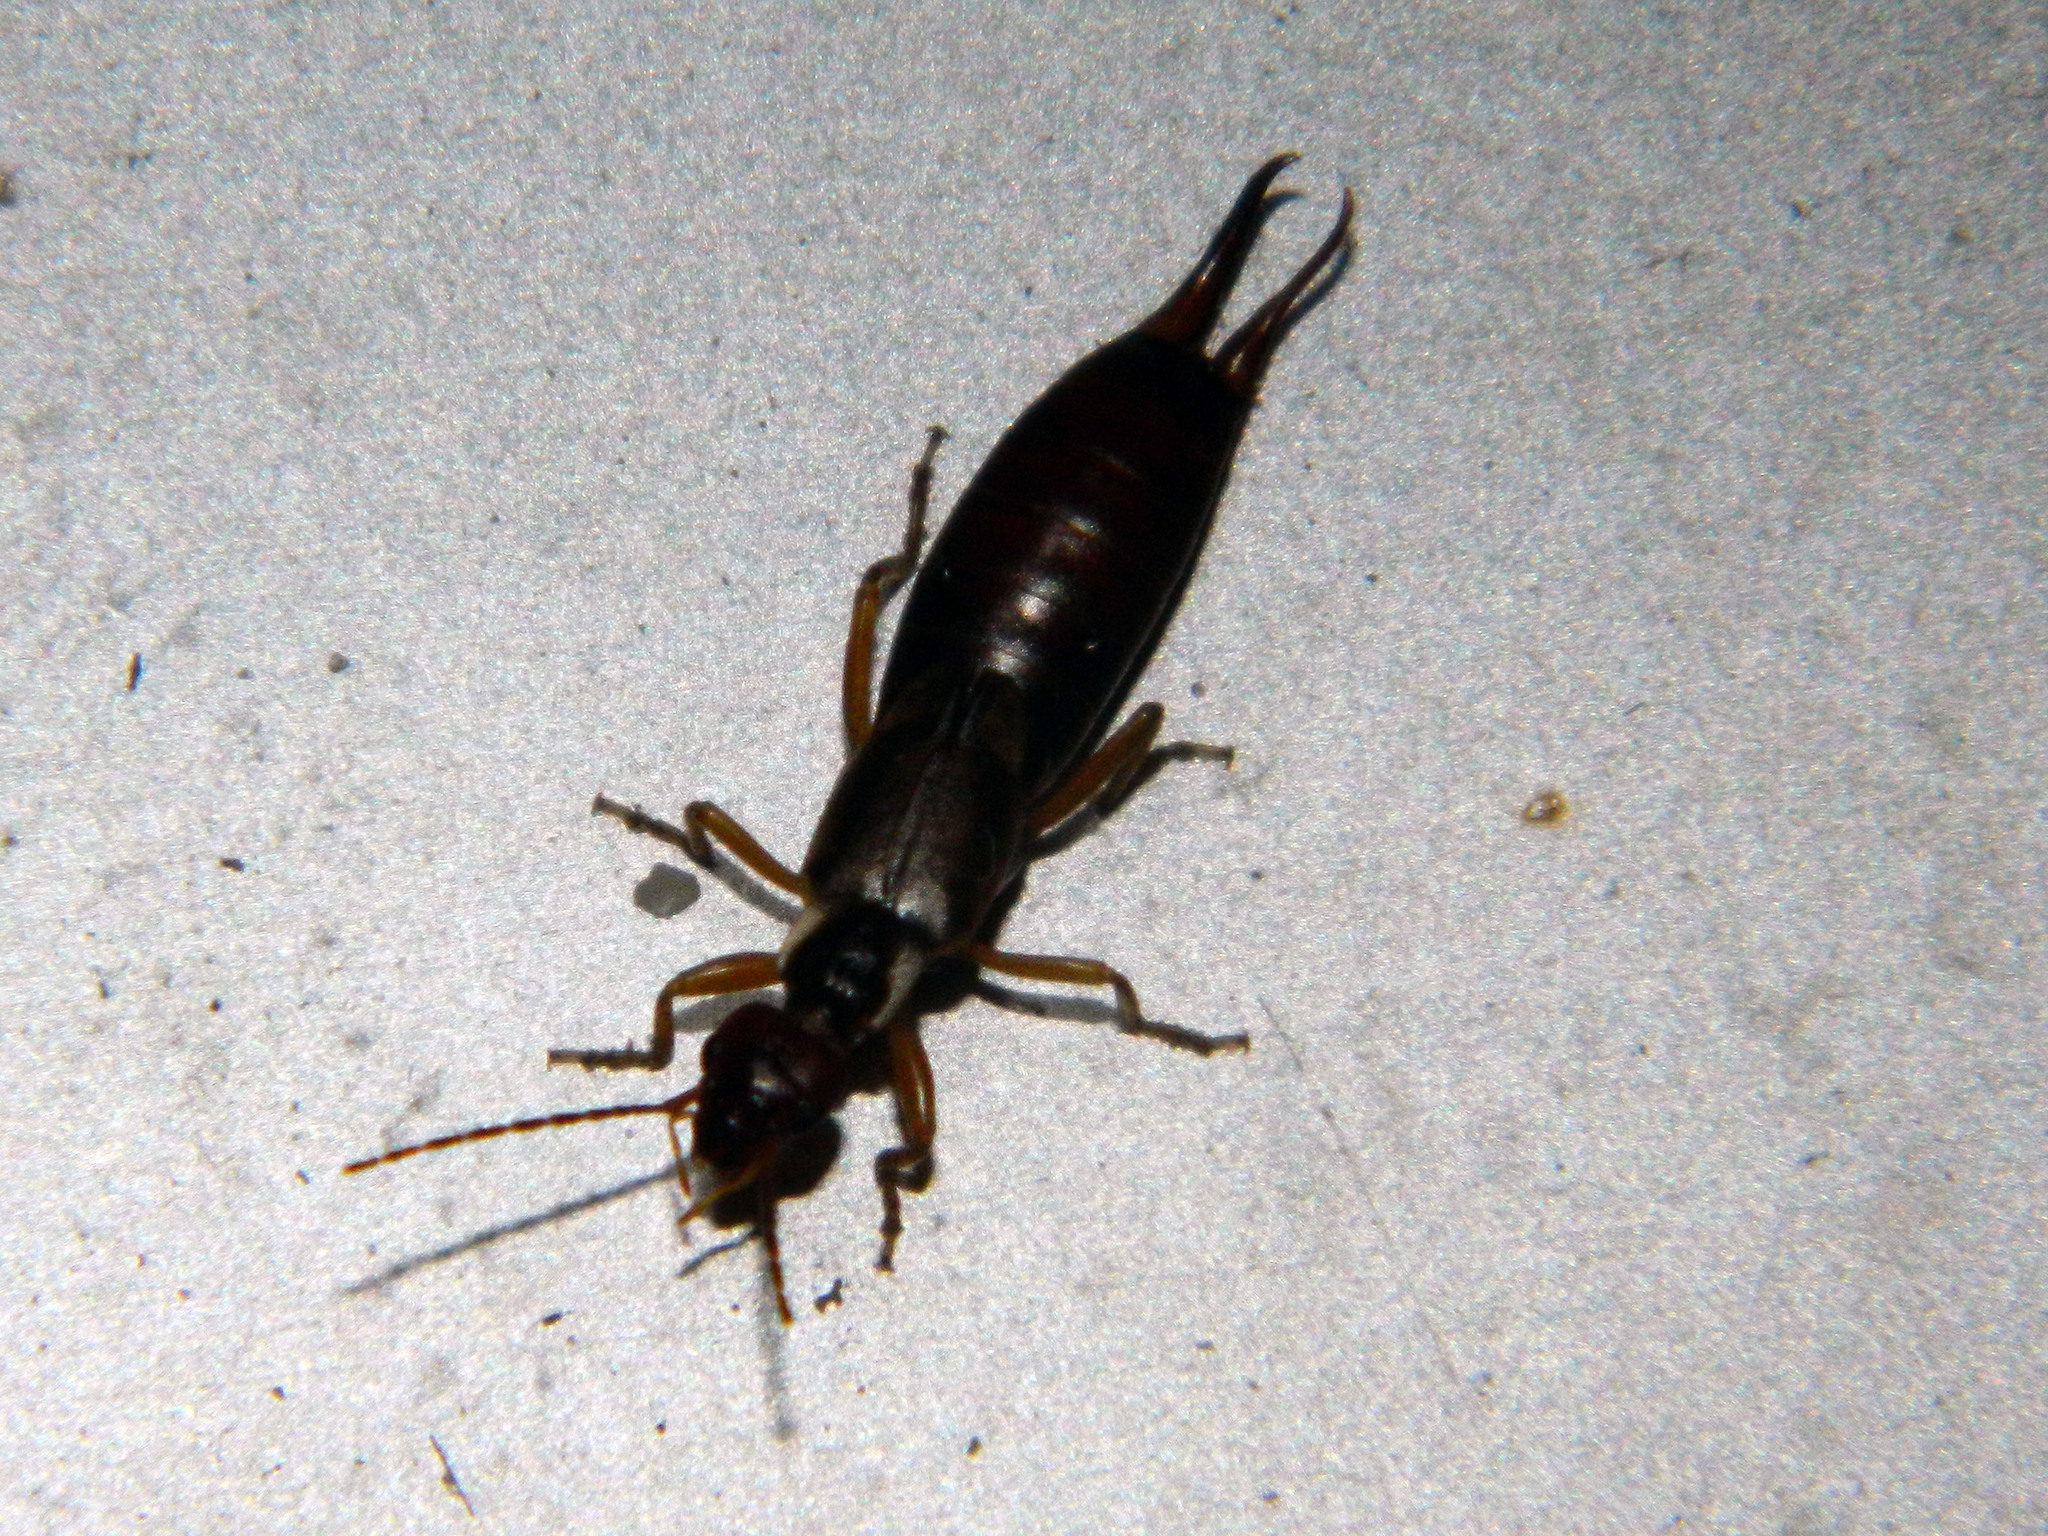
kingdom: Animalia
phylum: Arthropoda
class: Insecta
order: Dermaptera
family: Forficulidae
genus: Forficula
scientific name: Forficula
